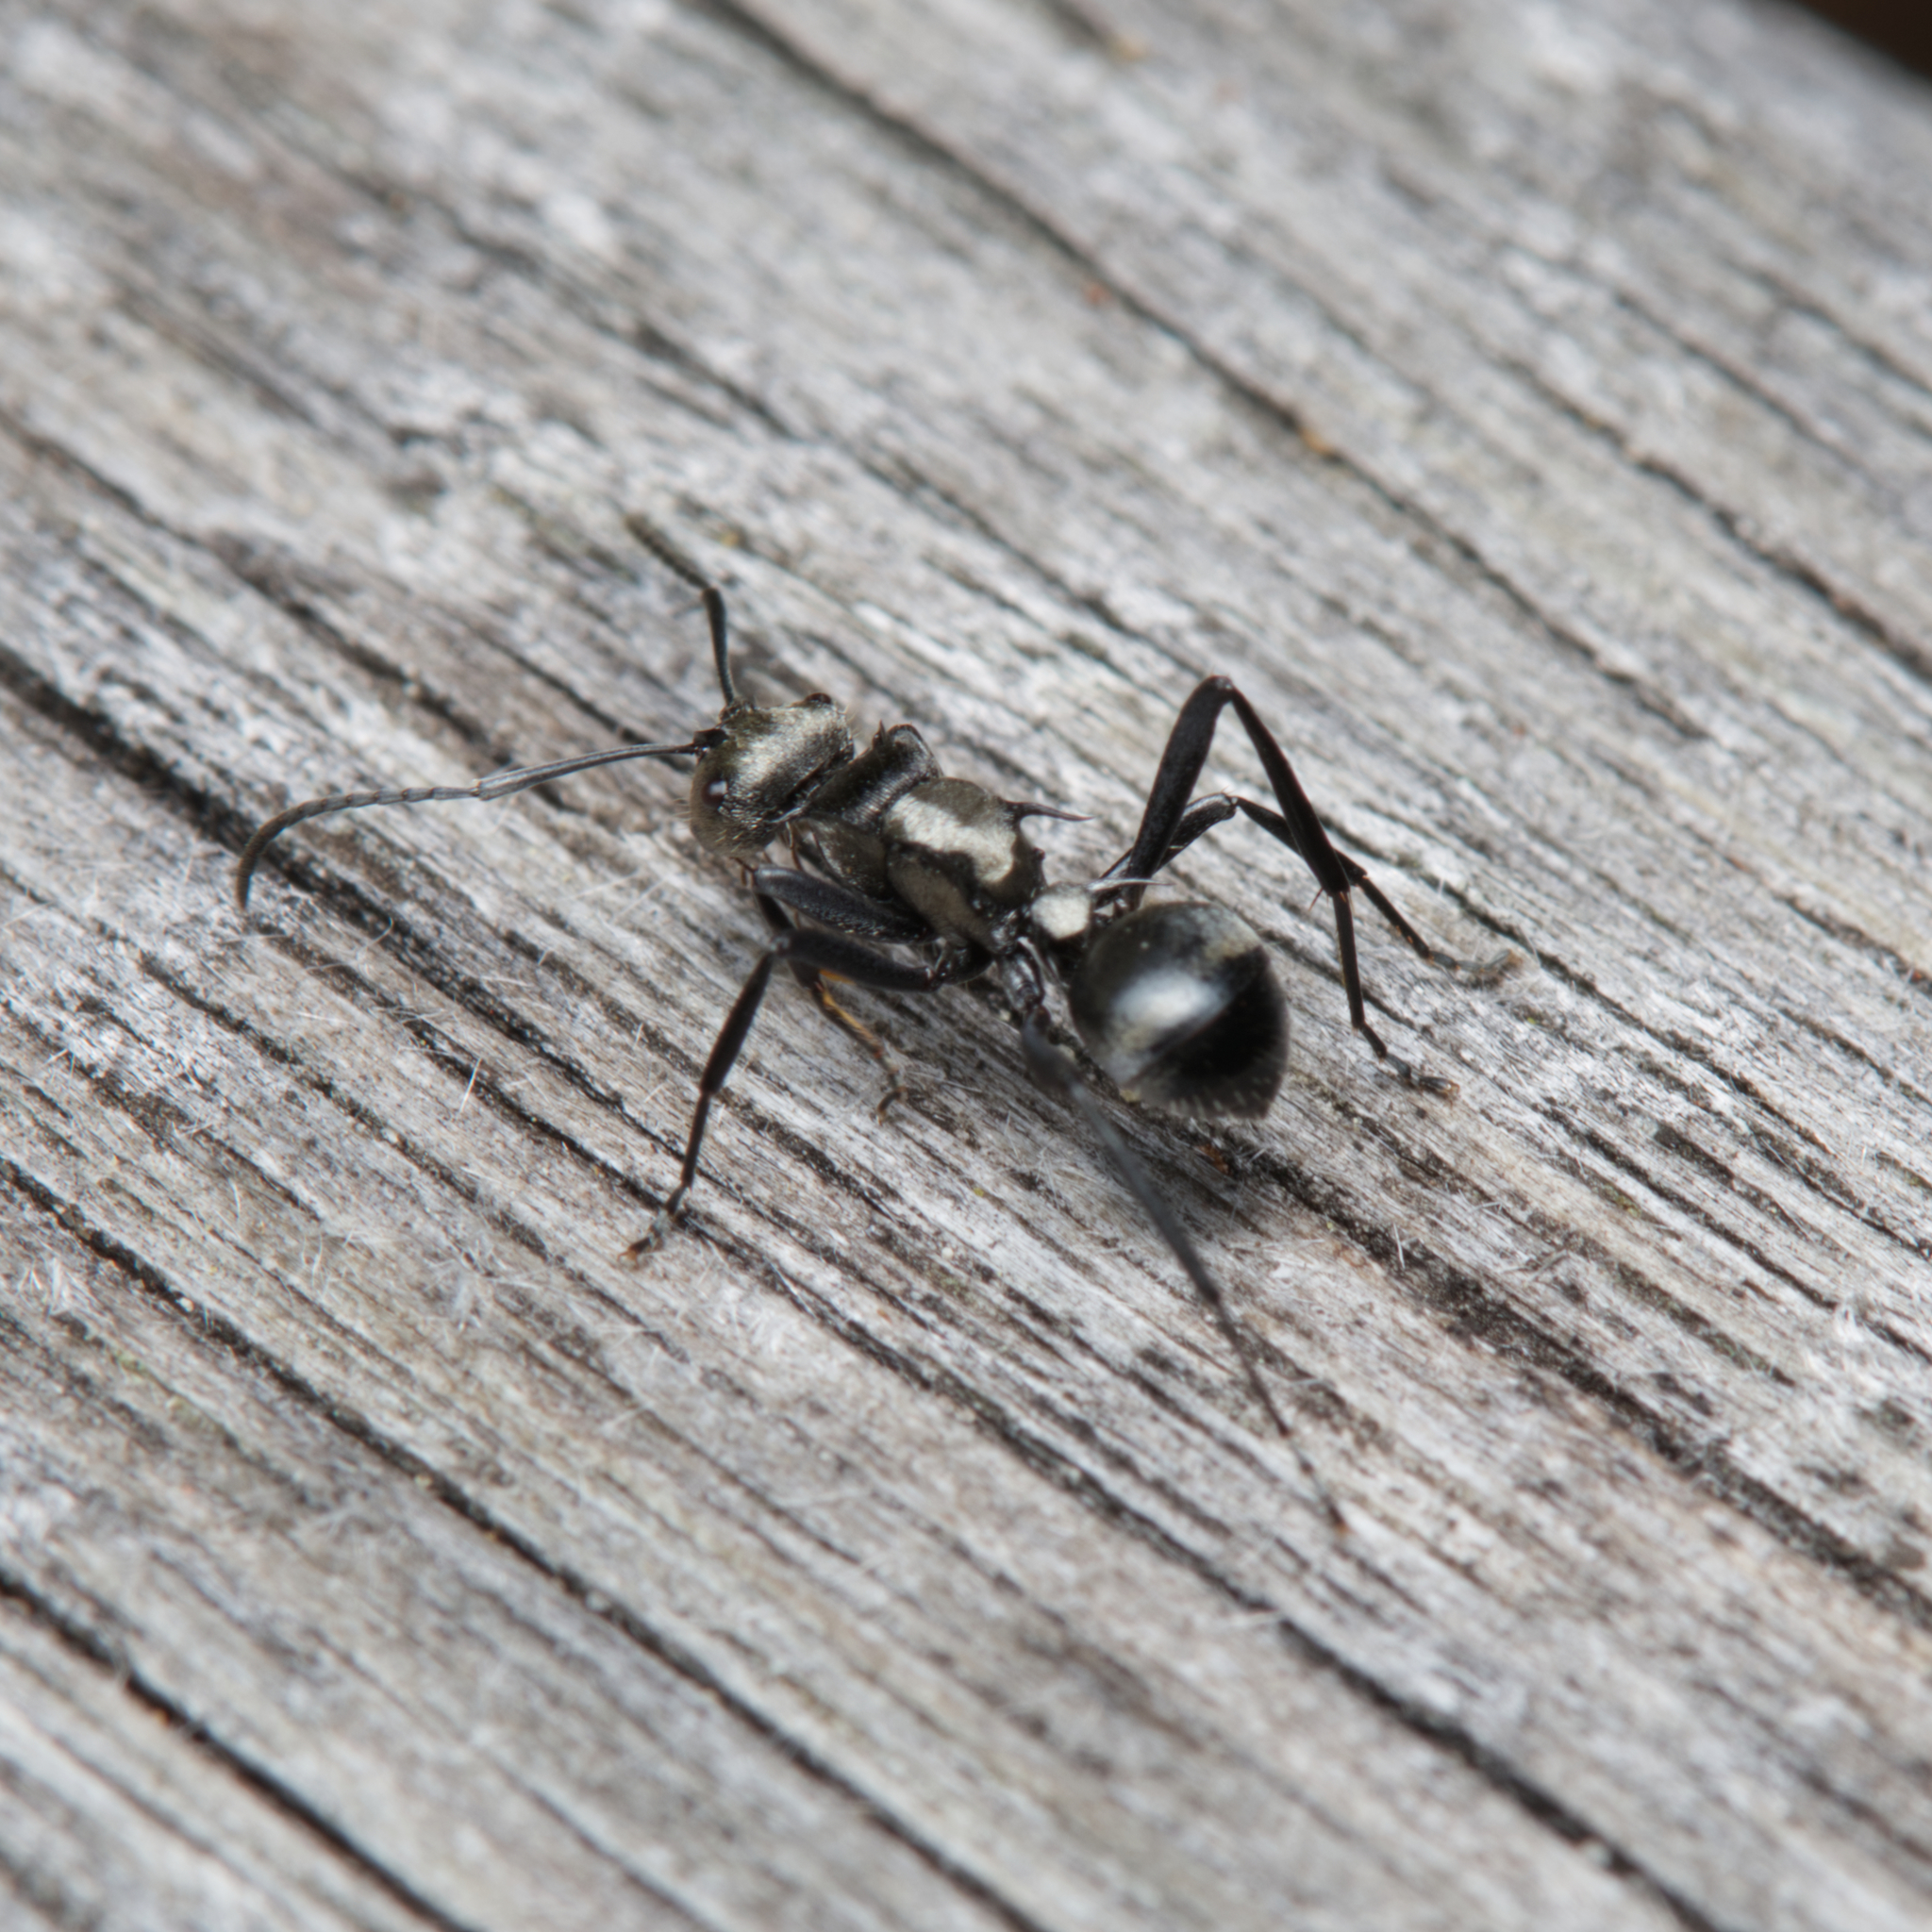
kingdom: Animalia
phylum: Arthropoda
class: Insecta
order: Hymenoptera
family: Formicidae
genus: Polyrhachis
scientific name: Polyrhachis daemeli
